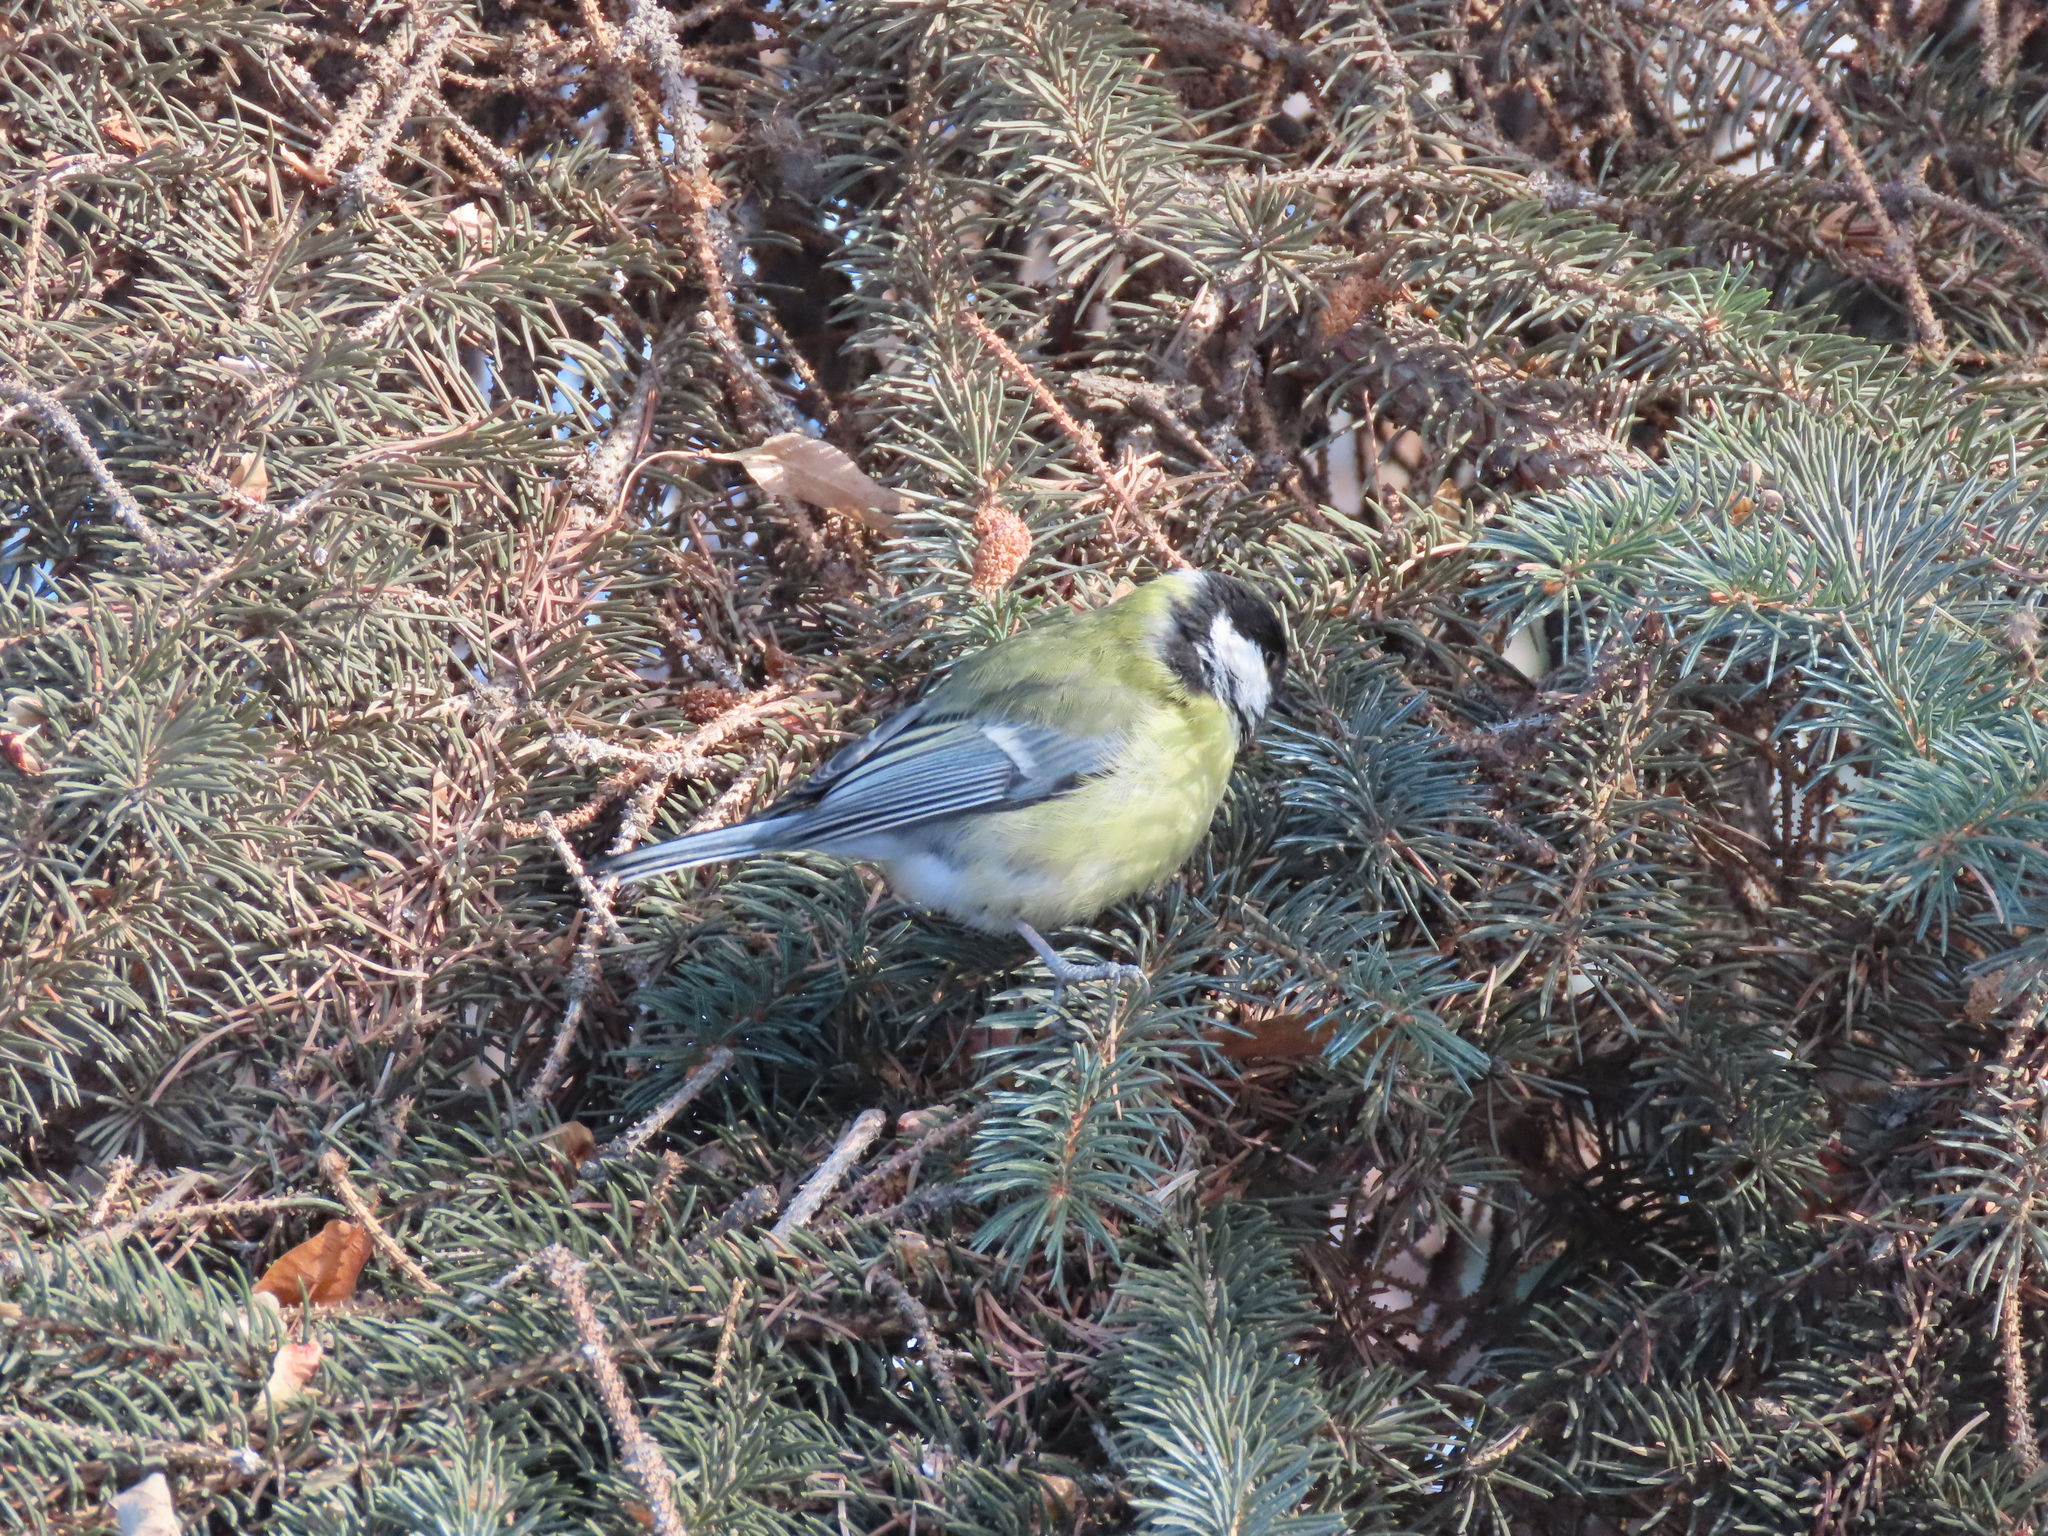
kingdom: Animalia
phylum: Chordata
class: Aves
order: Passeriformes
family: Paridae
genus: Parus
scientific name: Parus major
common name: Great tit
